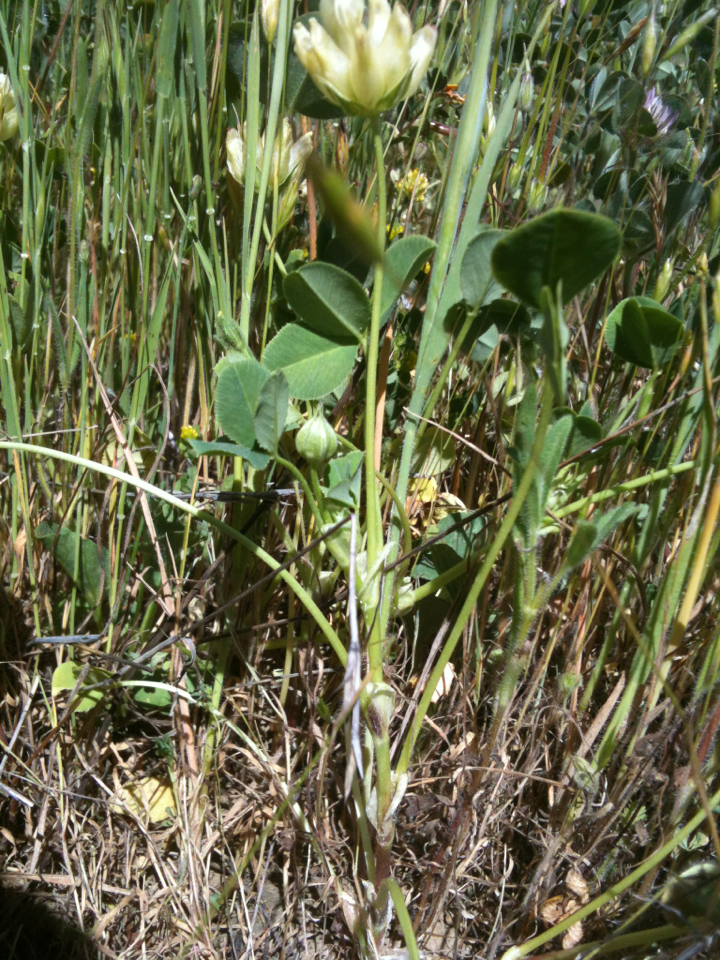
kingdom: Plantae
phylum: Tracheophyta
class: Magnoliopsida
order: Fabales
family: Fabaceae
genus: Trifolium
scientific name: Trifolium fucatum
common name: Puff clover
